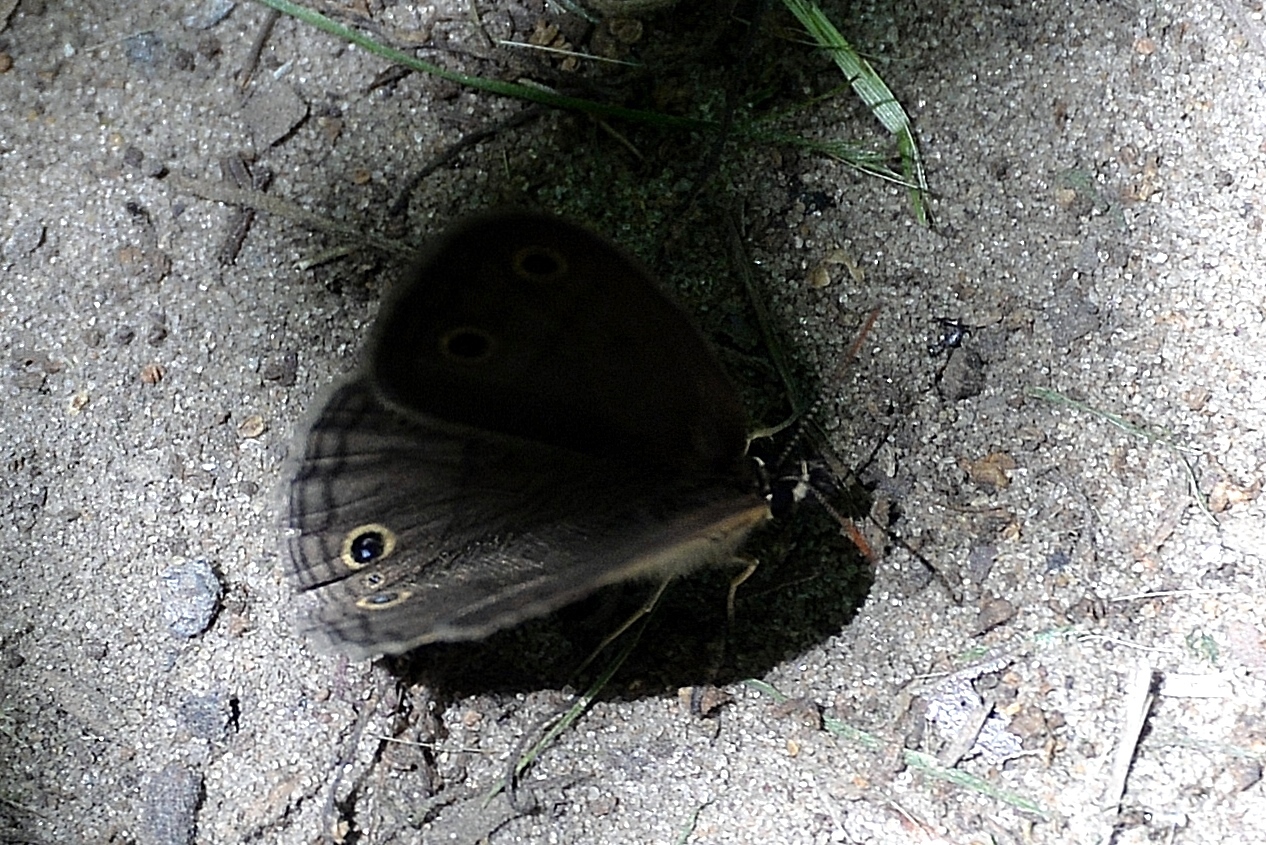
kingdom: Animalia
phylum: Arthropoda
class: Insecta
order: Lepidoptera
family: Nymphalidae
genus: Euptychia
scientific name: Euptychia cymela
